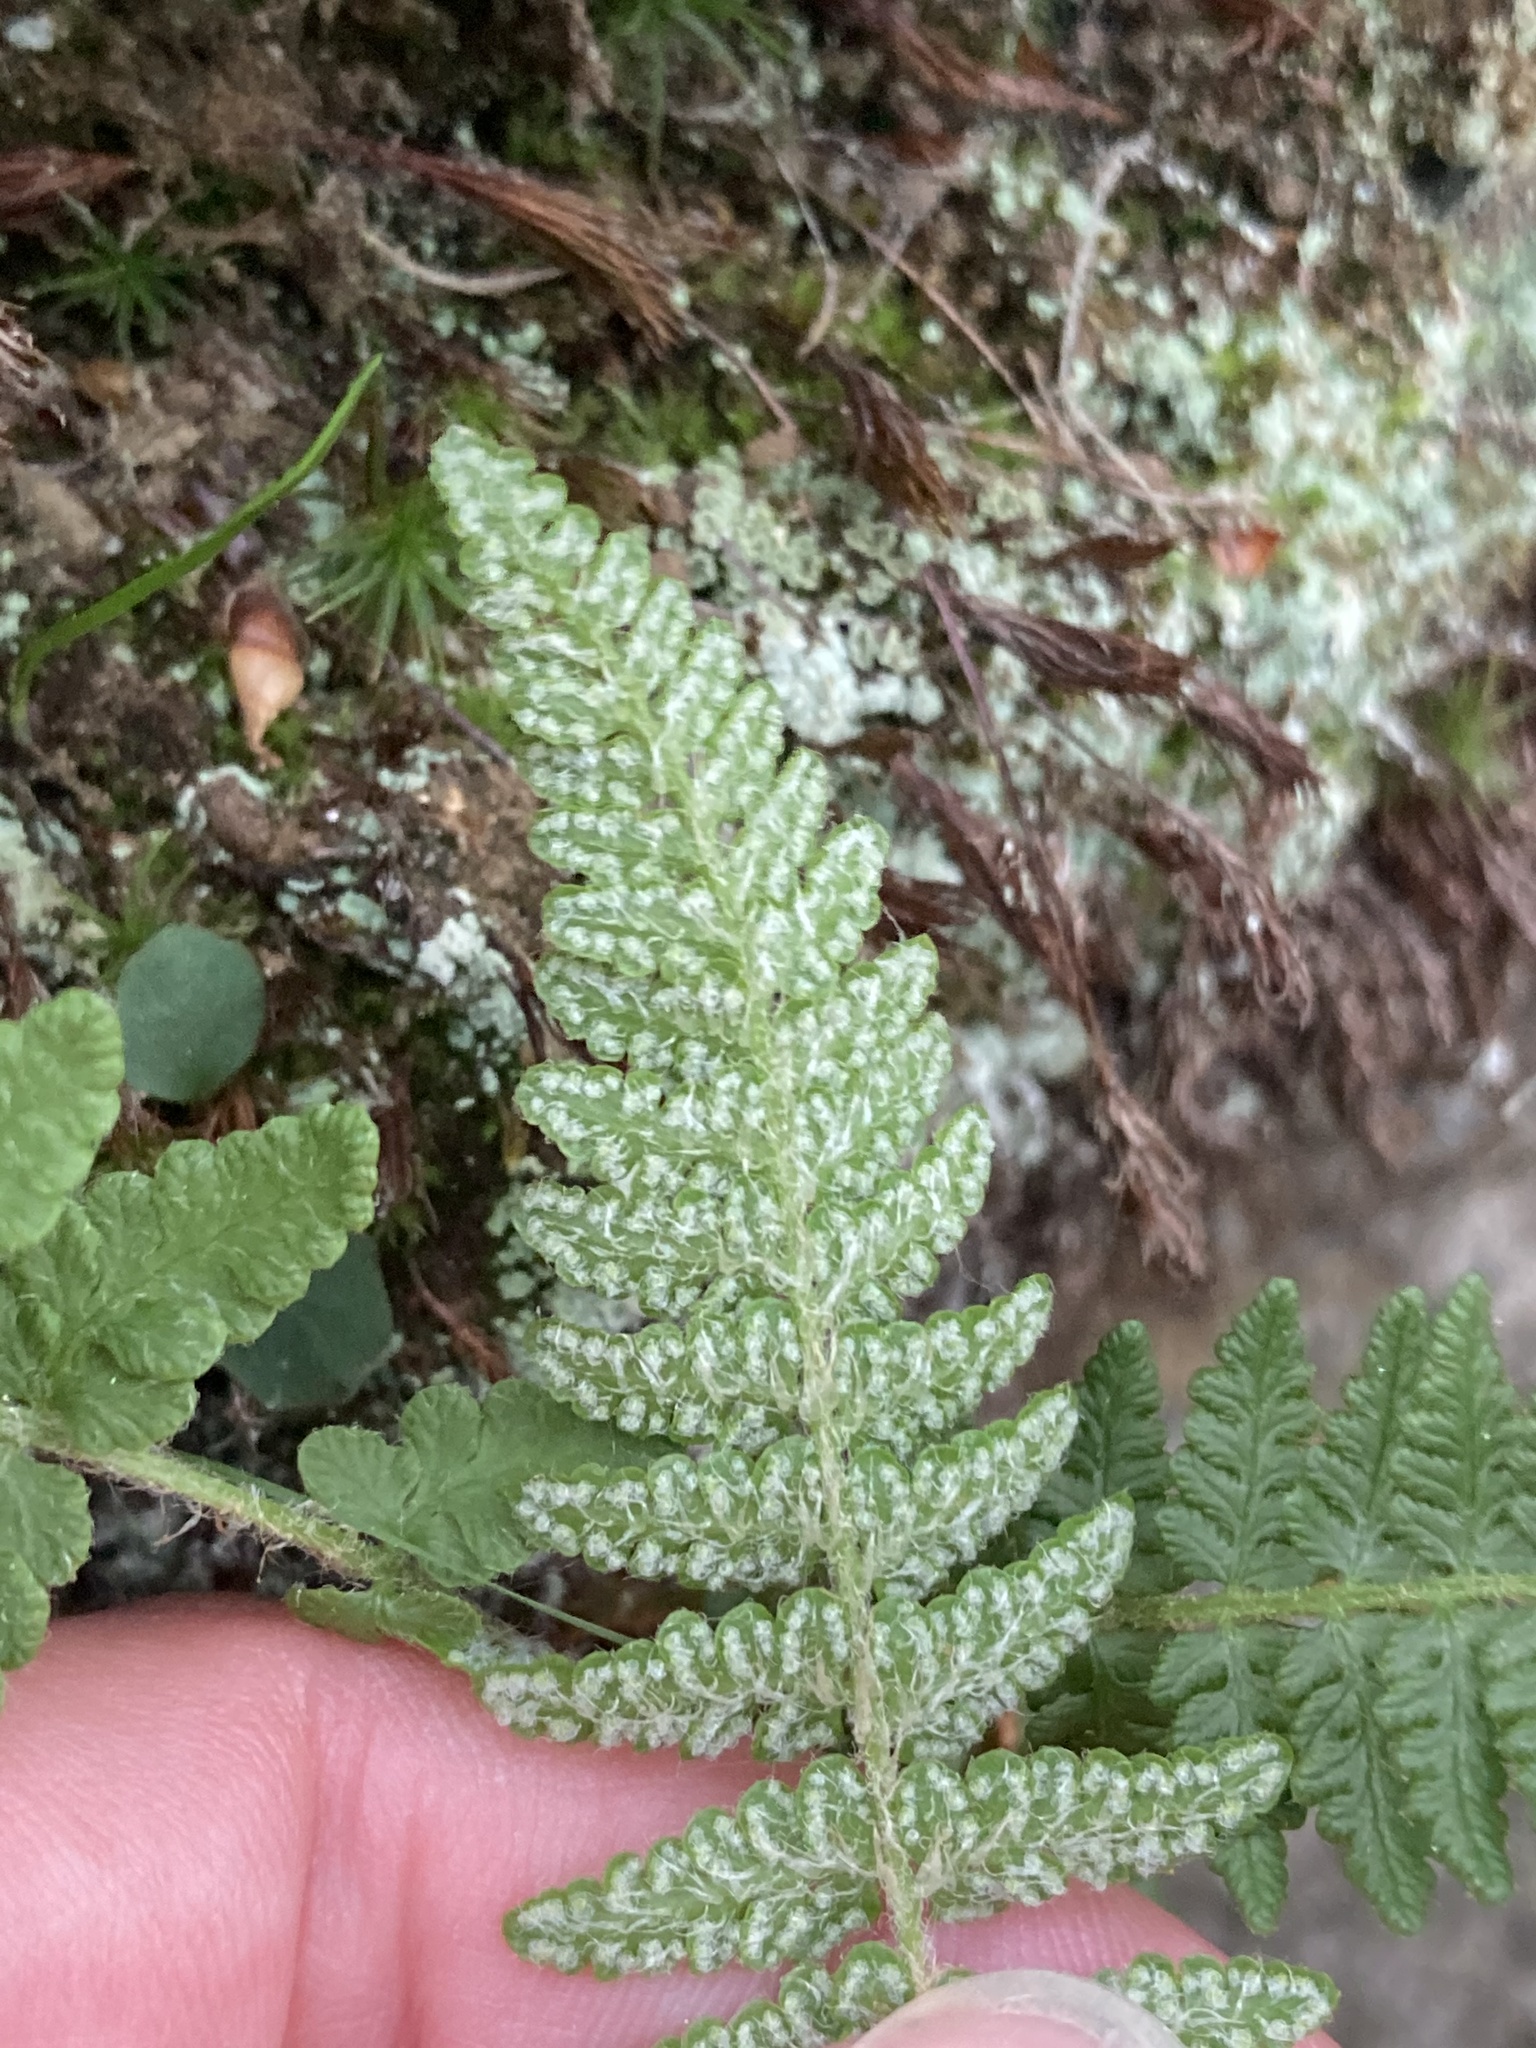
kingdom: Plantae
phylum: Tracheophyta
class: Polypodiopsida
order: Polypodiales
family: Woodsiaceae
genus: Woodsia
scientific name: Woodsia ilvensis
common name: Fragrant woodsia
